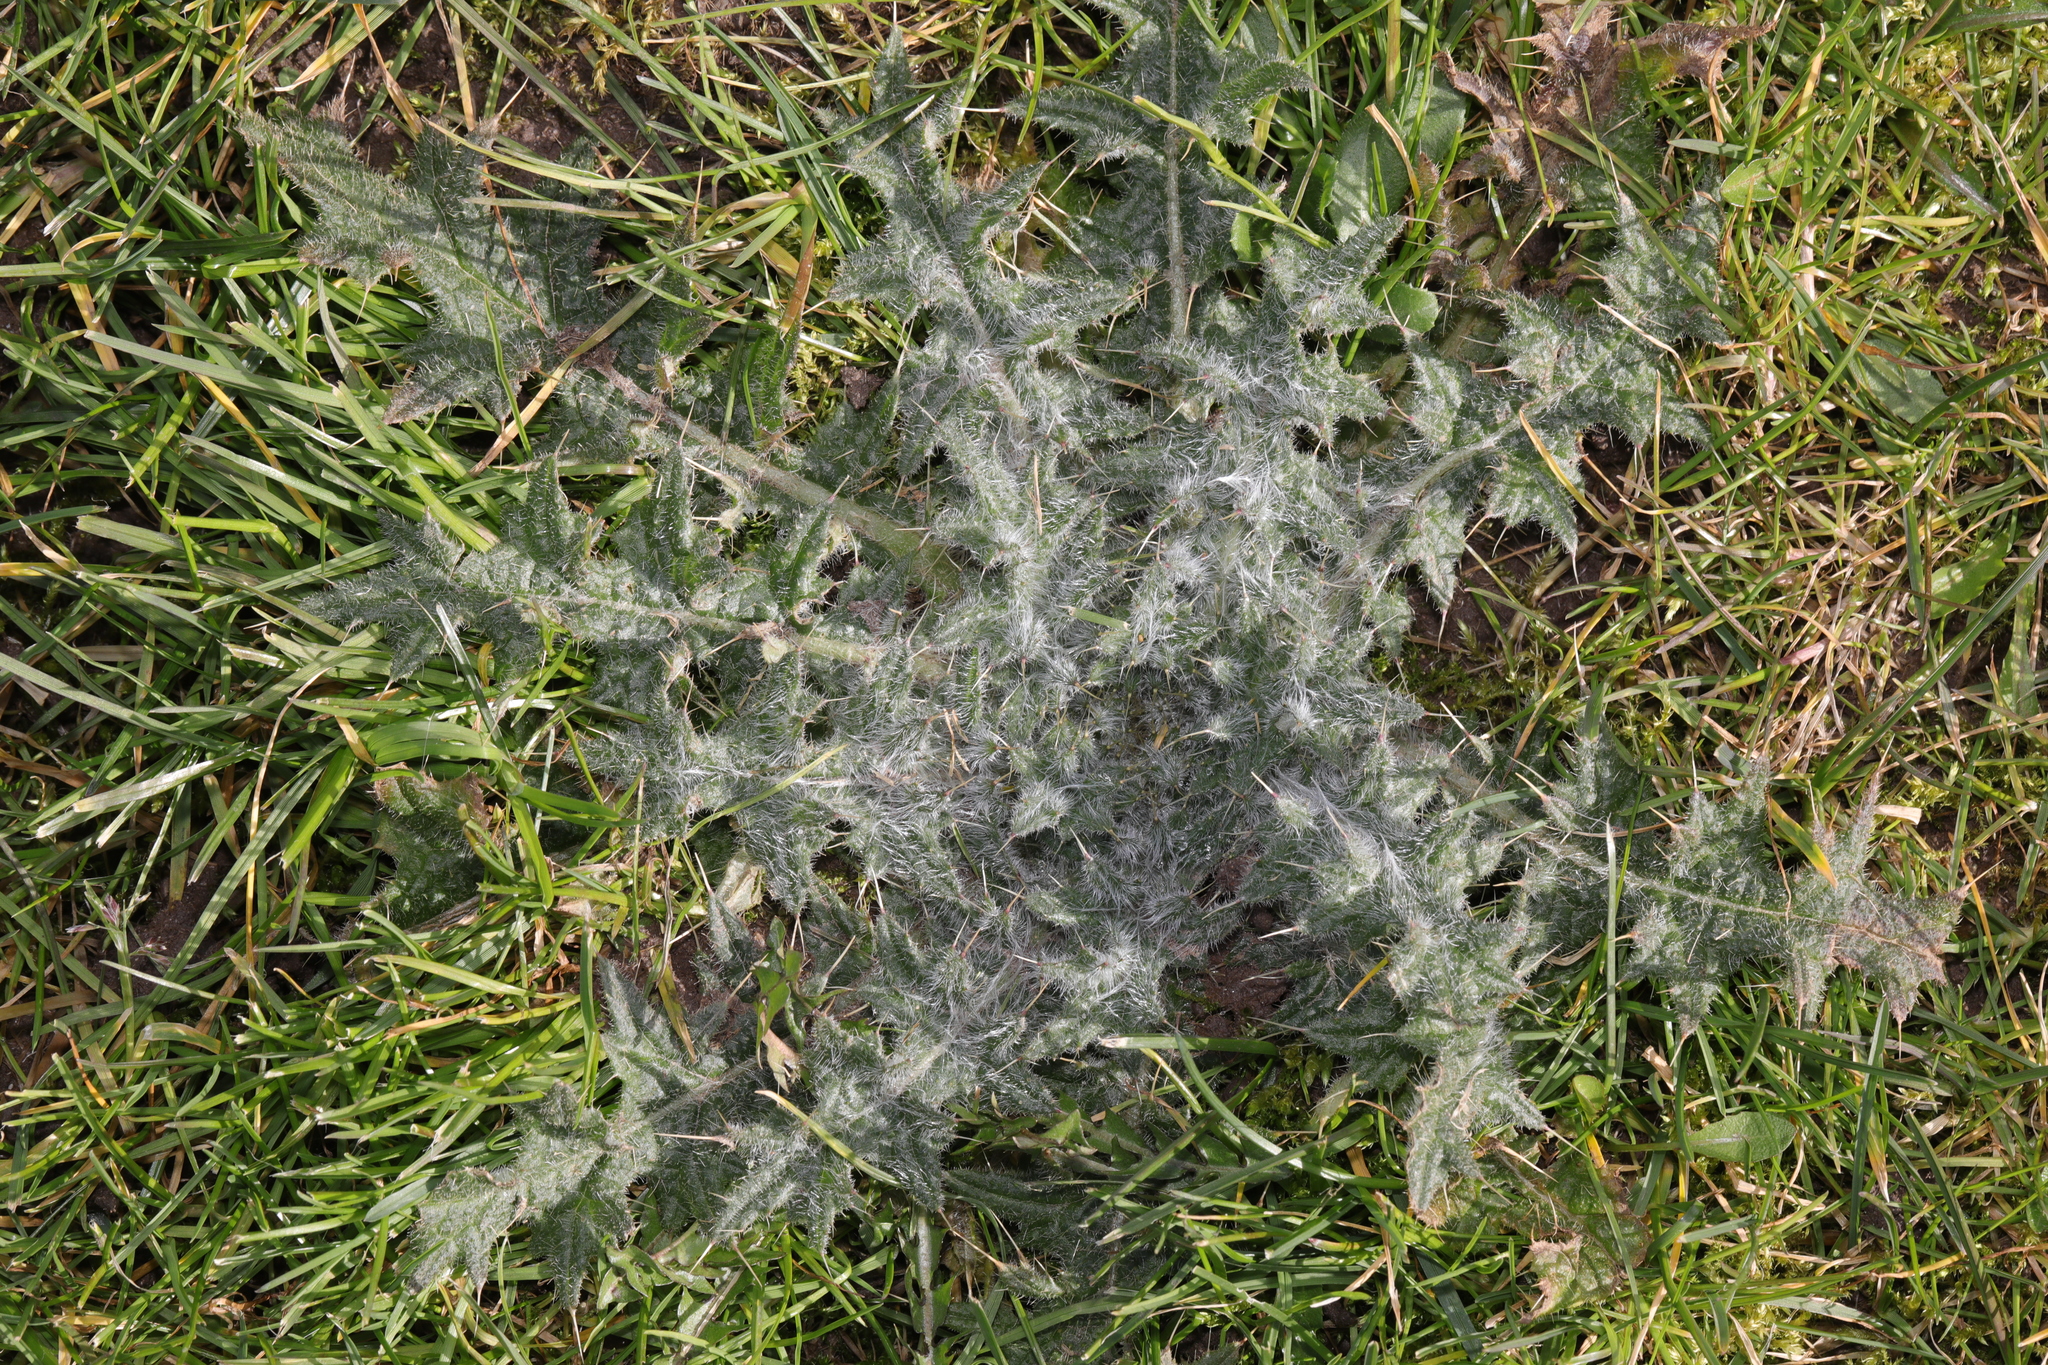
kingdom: Plantae
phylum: Tracheophyta
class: Magnoliopsida
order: Asterales
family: Asteraceae
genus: Cirsium
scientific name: Cirsium vulgare
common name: Bull thistle
